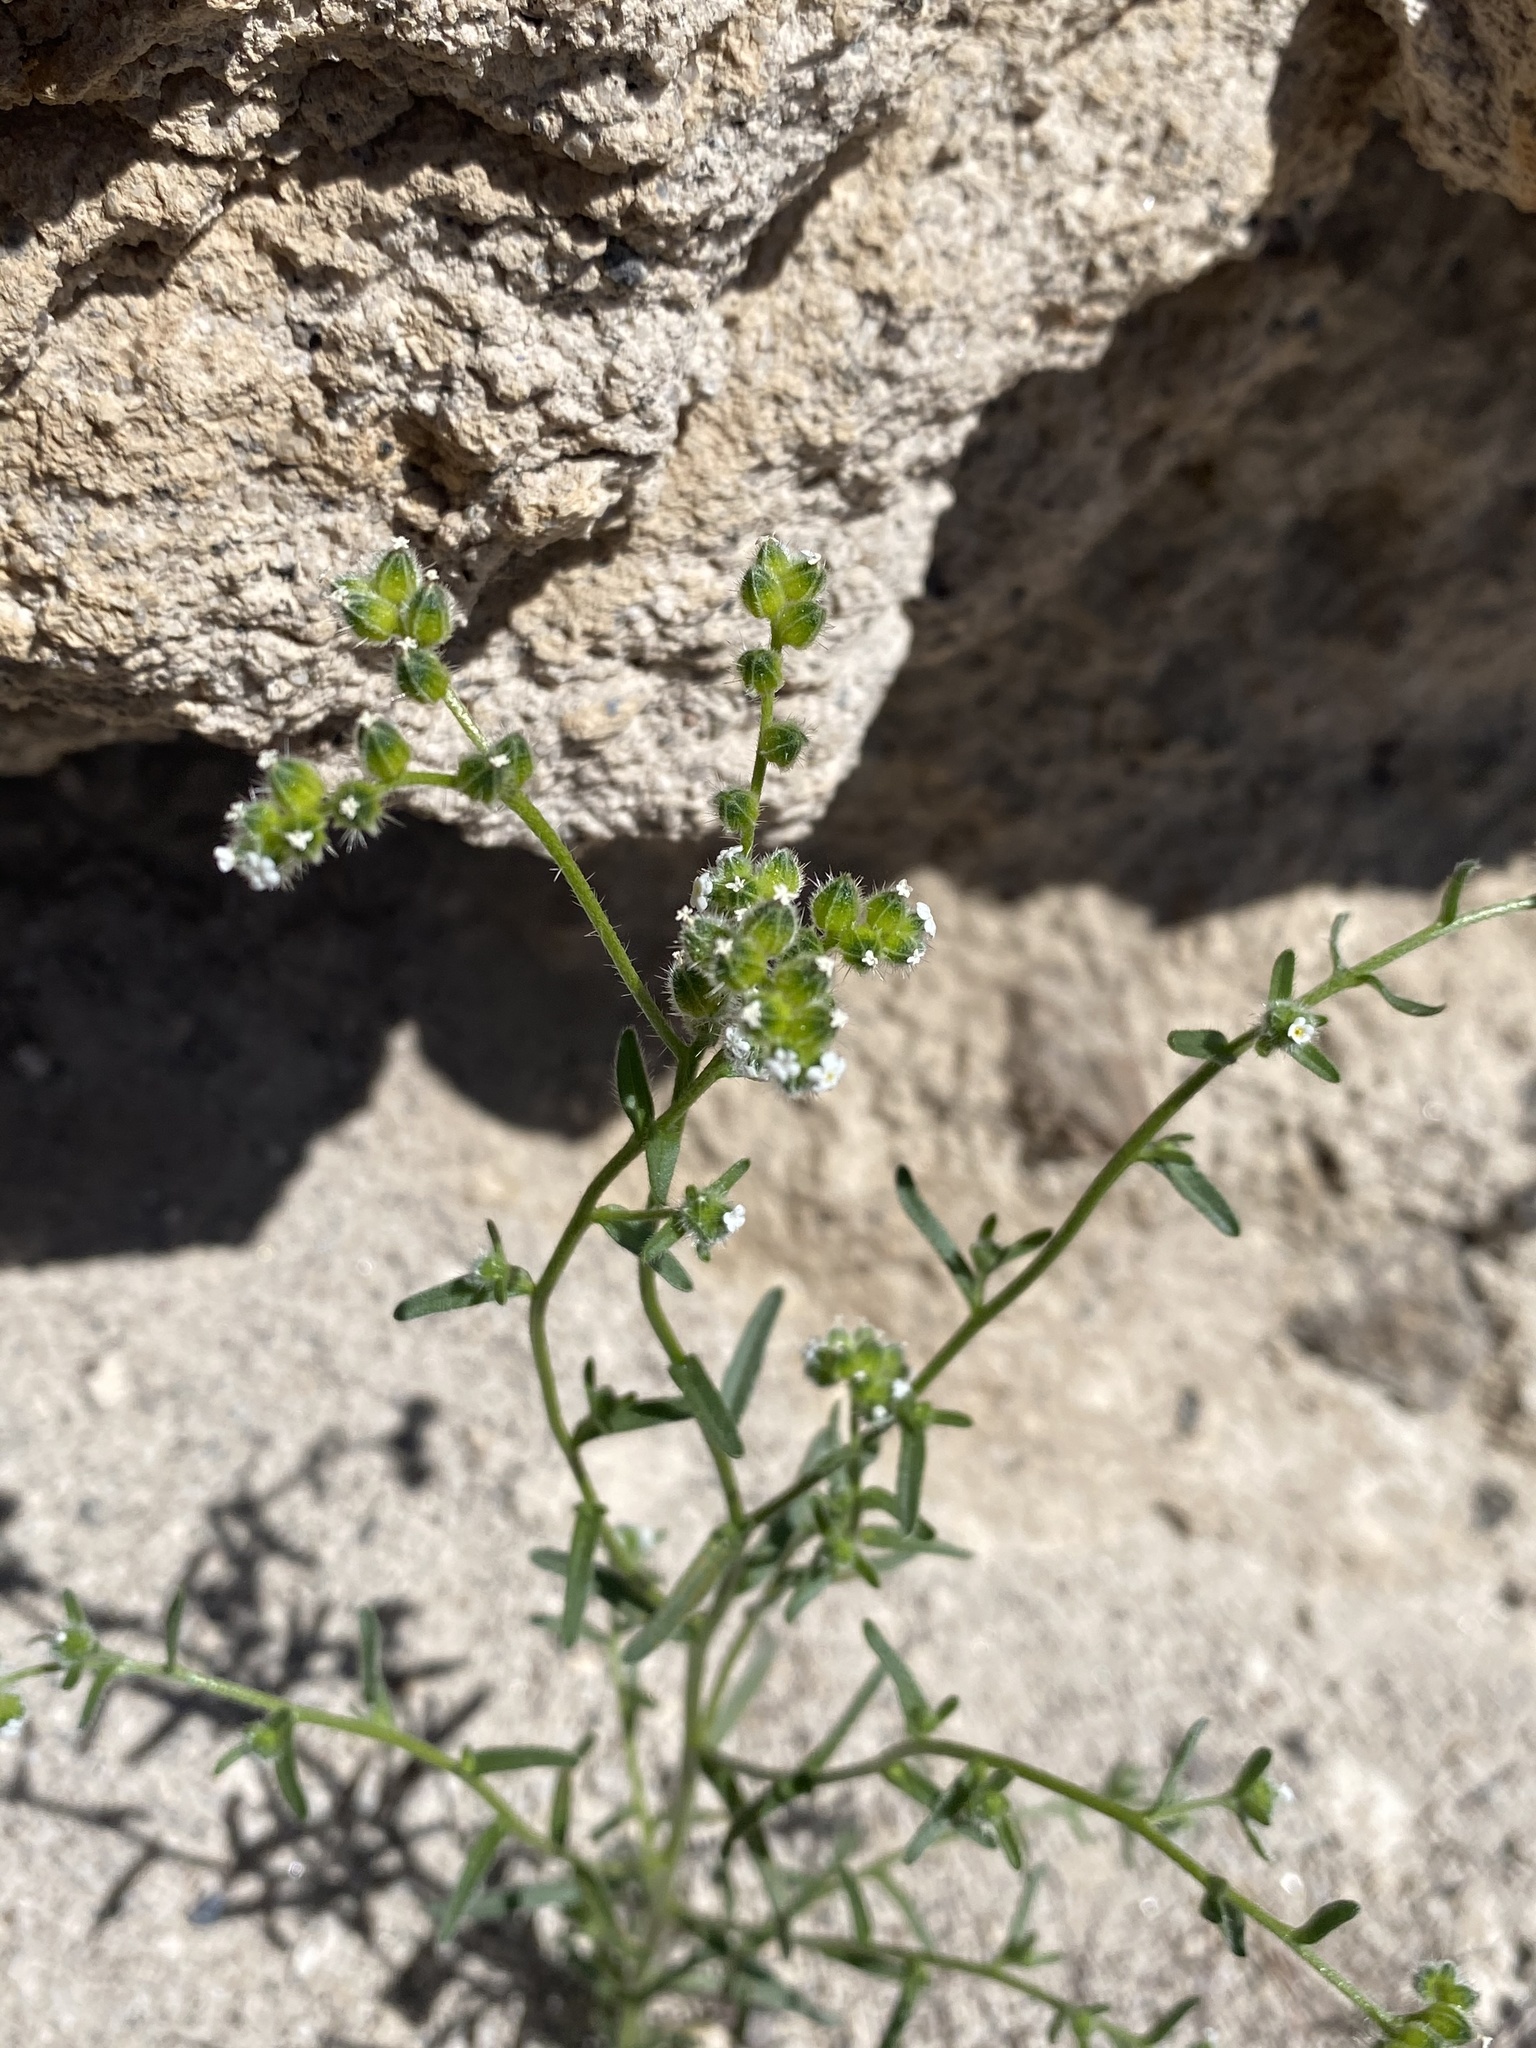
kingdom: Plantae
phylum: Tracheophyta
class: Magnoliopsida
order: Boraginales
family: Boraginaceae
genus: Cryptantha
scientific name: Cryptantha pterocarya
